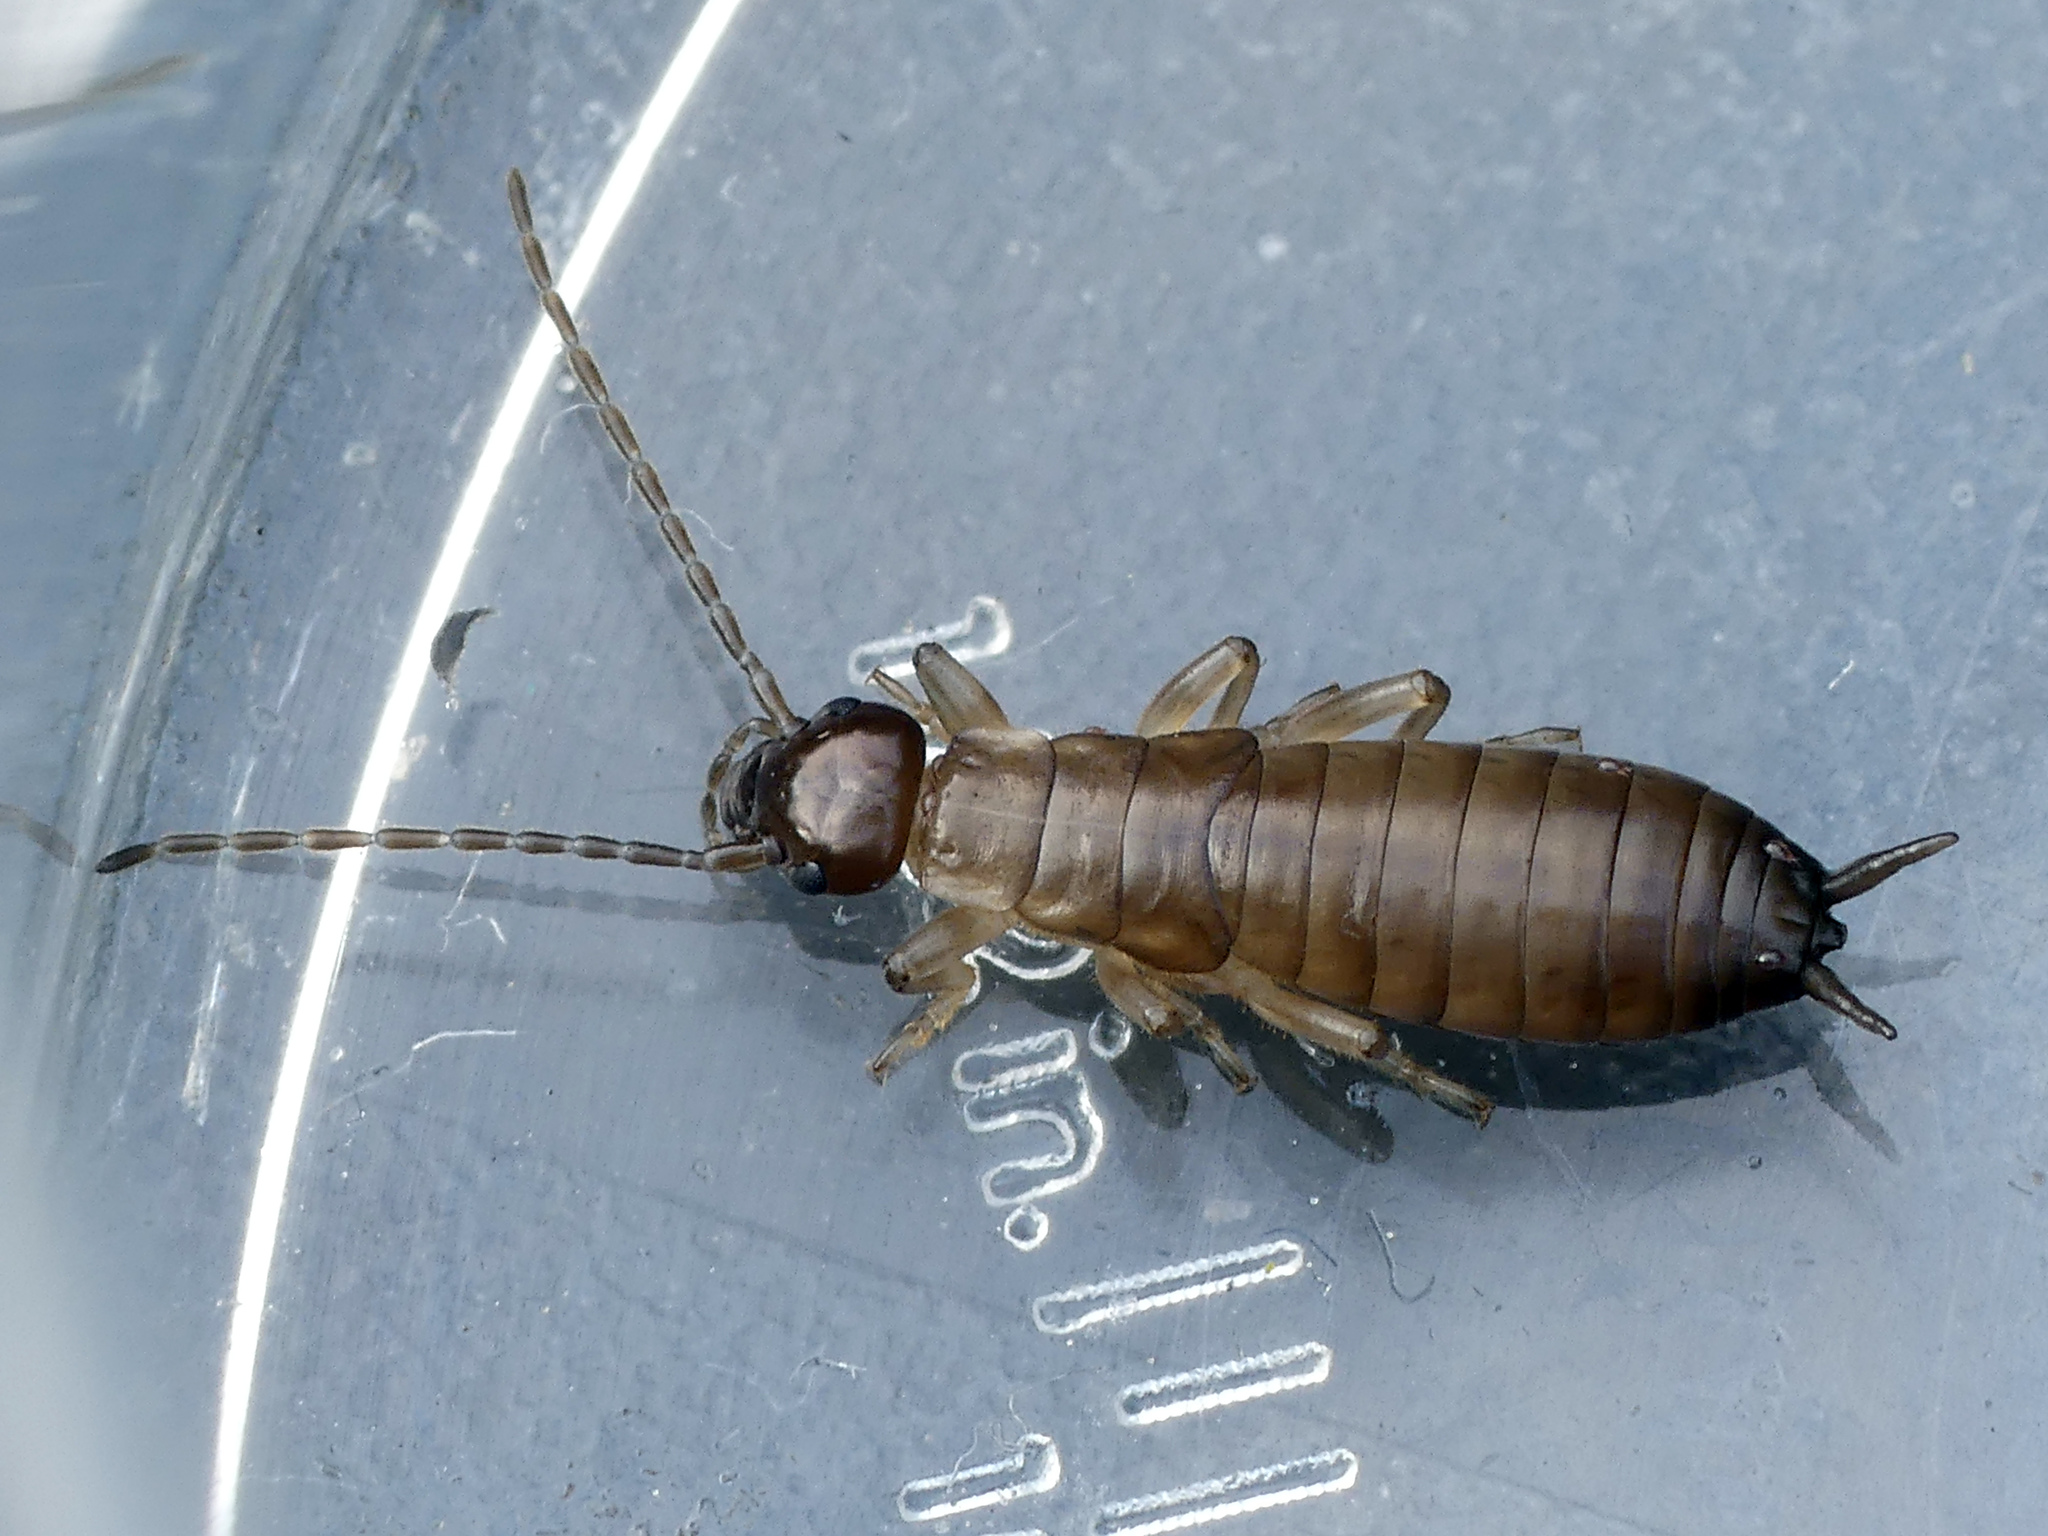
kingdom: Animalia
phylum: Arthropoda
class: Insecta
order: Dermaptera
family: Forficulidae
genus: Forficula
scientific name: Forficula
